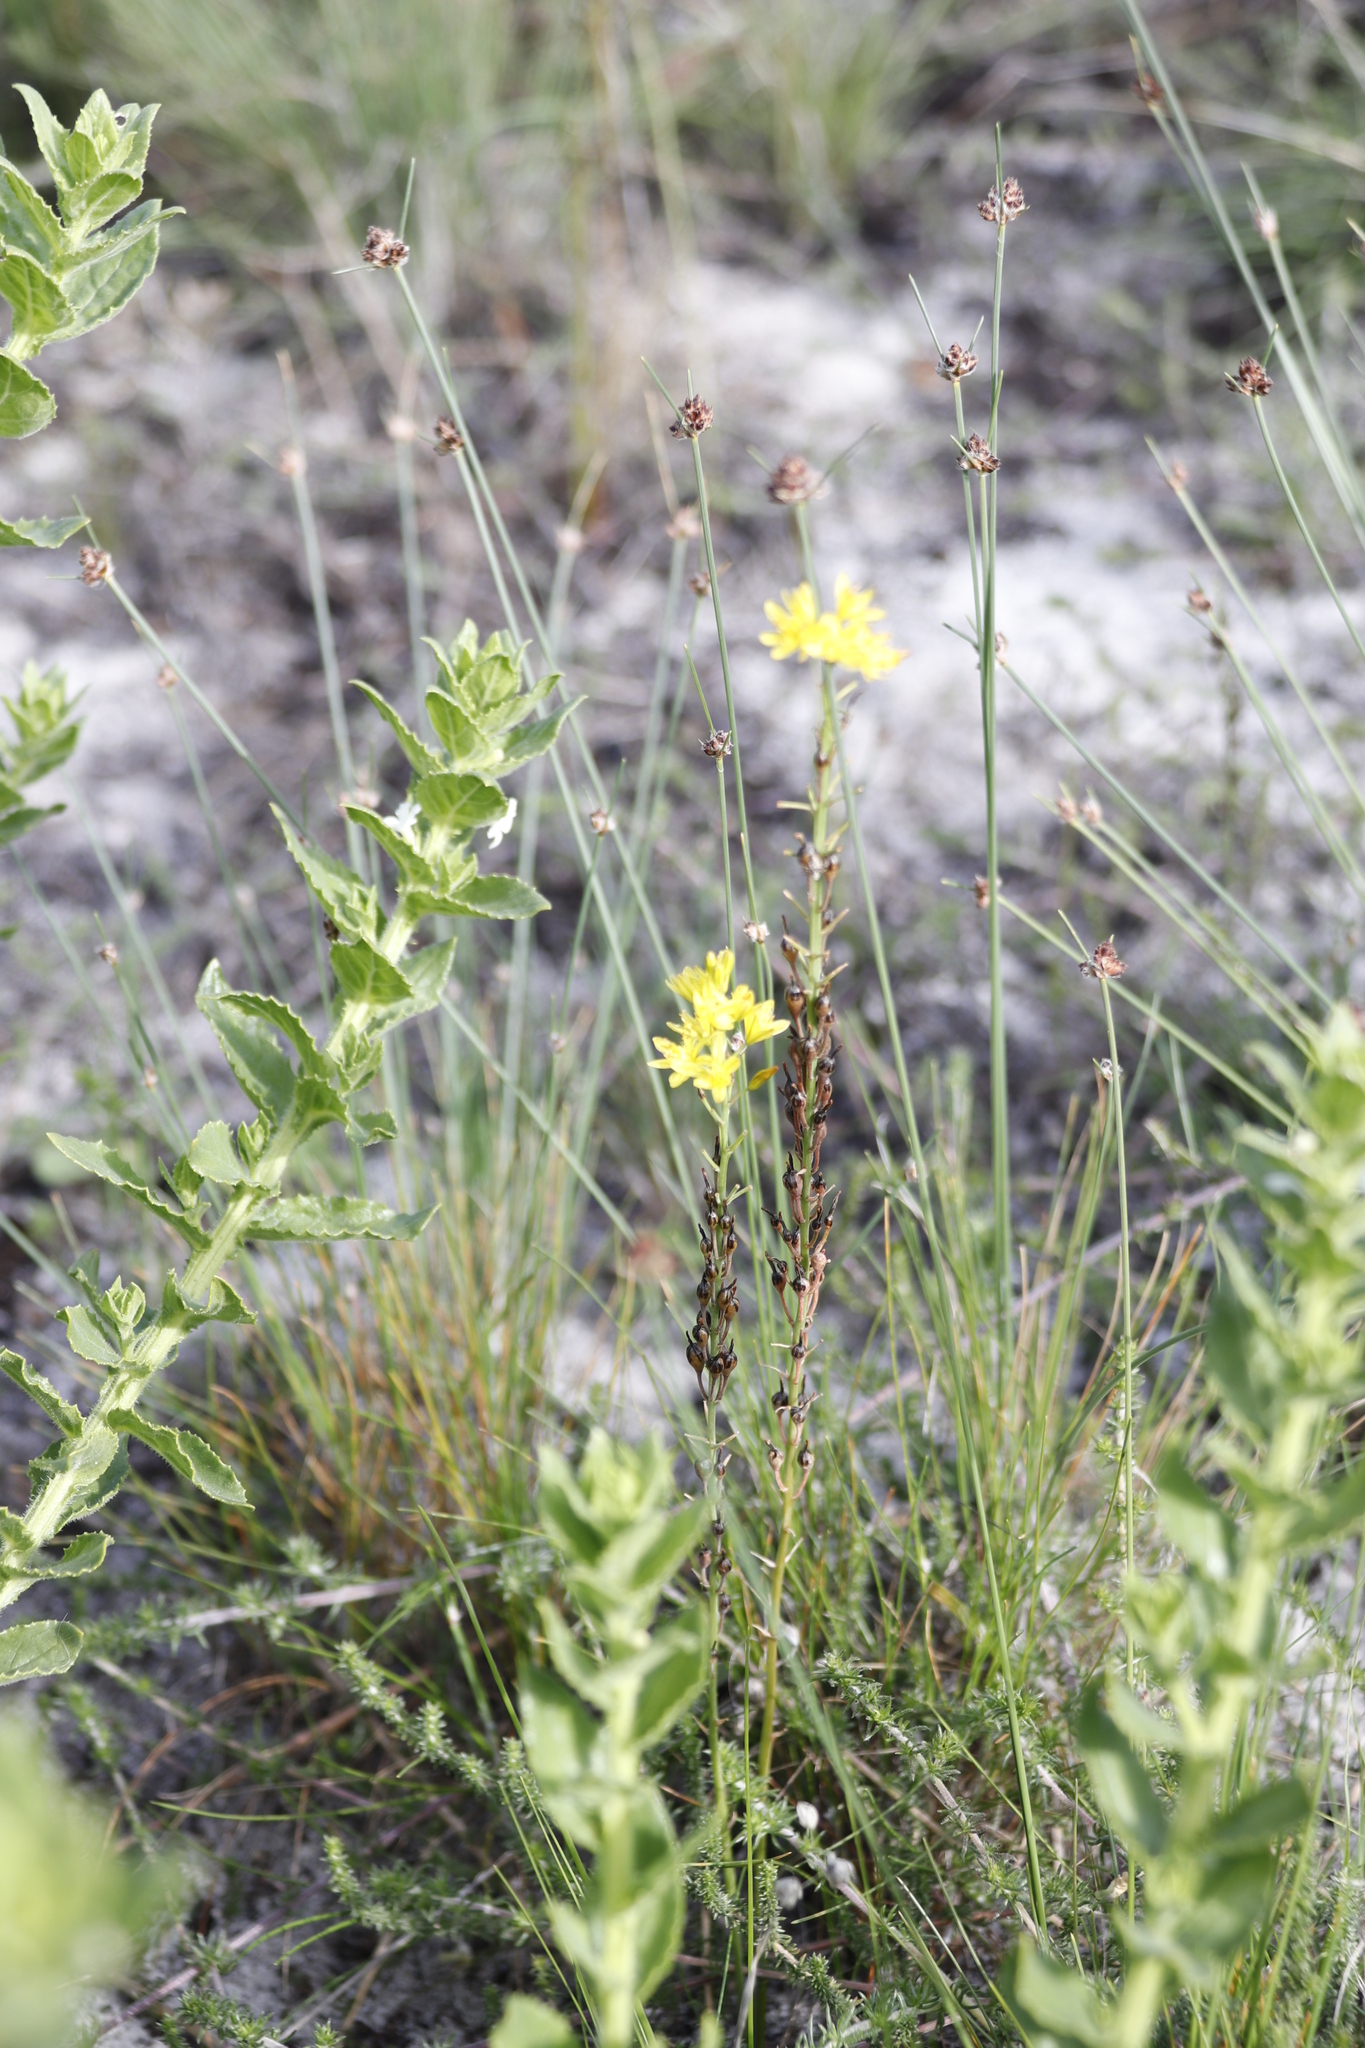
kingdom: Plantae
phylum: Tracheophyta
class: Liliopsida
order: Poales
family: Cyperaceae
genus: Ficinia
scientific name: Ficinia paradoxa
